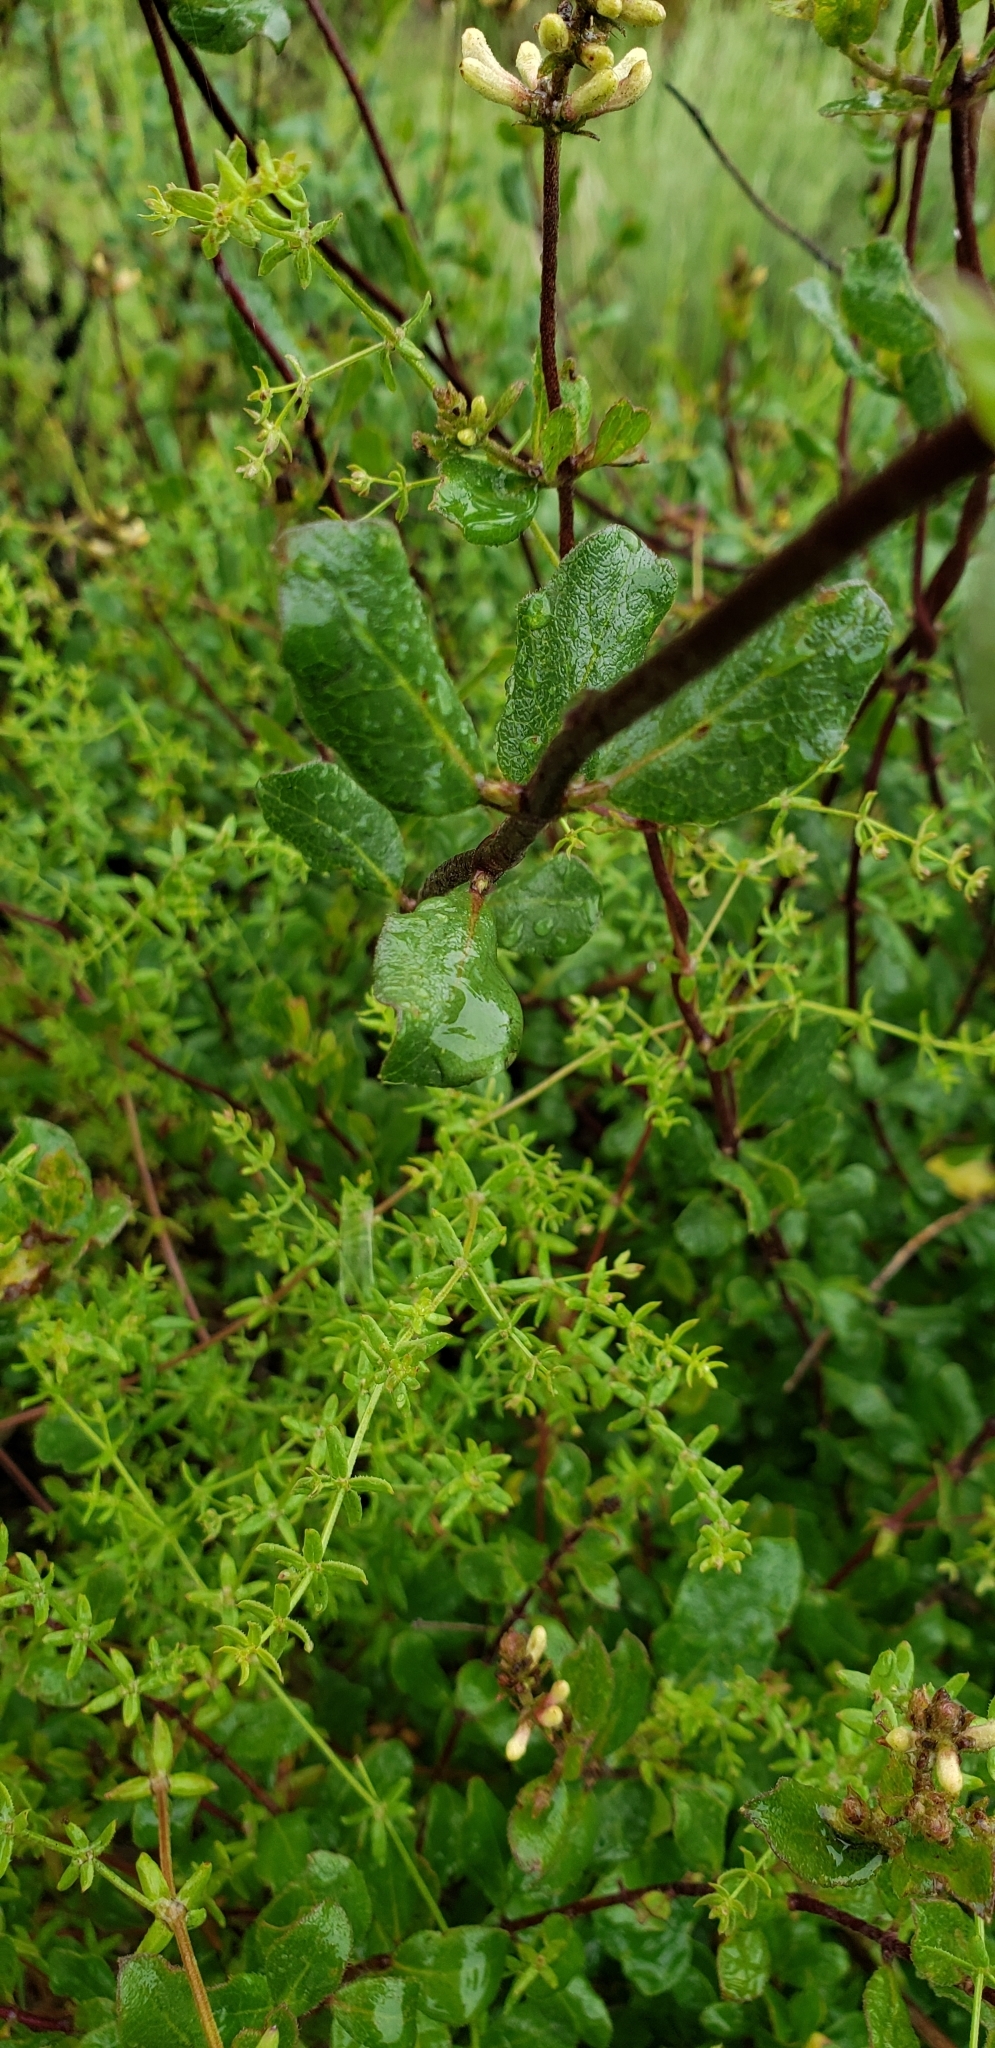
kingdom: Plantae
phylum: Tracheophyta
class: Magnoliopsida
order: Dipsacales
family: Caprifoliaceae
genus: Lonicera
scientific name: Lonicera subspicata
